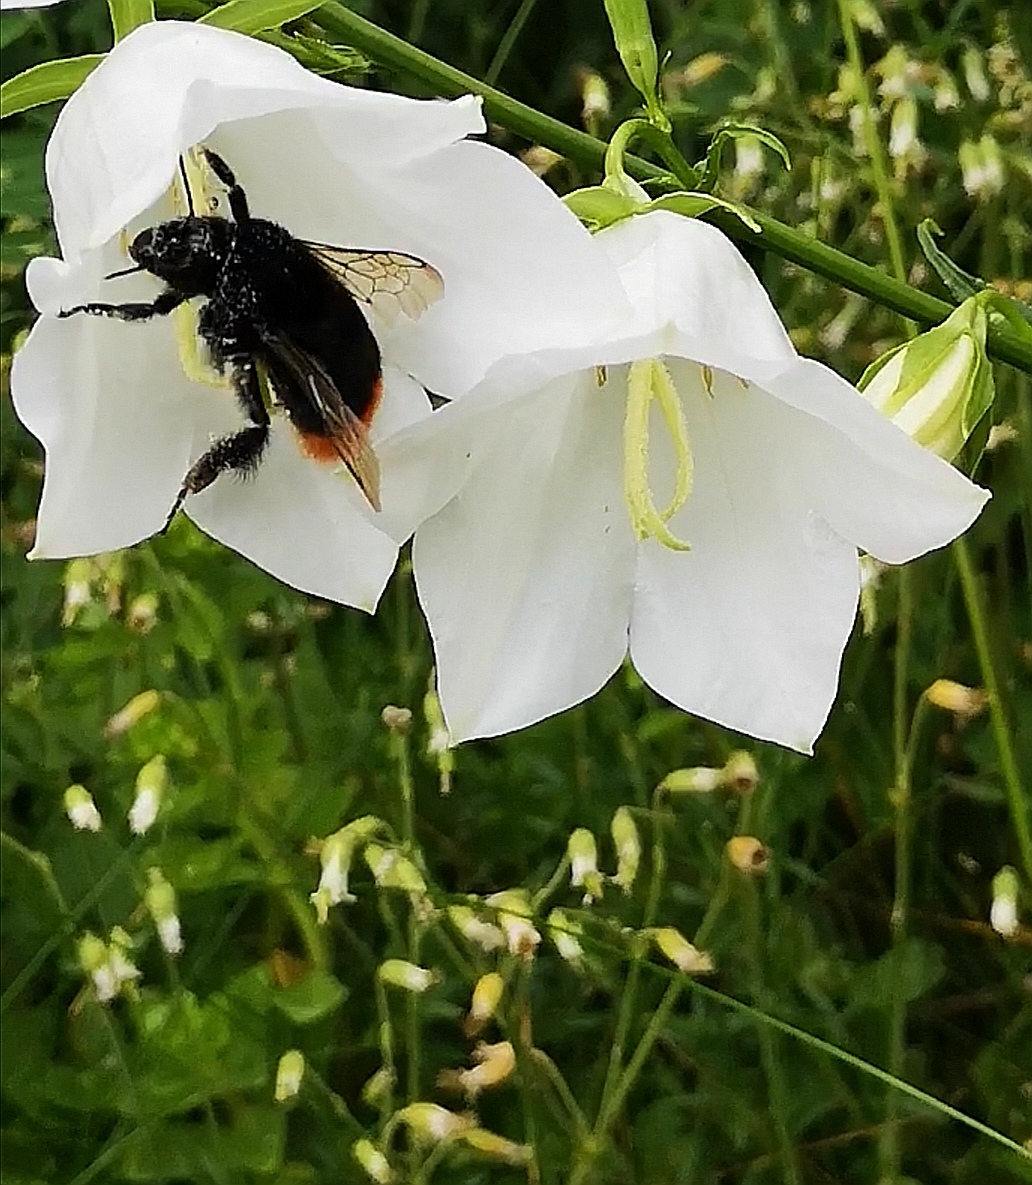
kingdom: Animalia
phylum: Arthropoda
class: Insecta
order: Hymenoptera
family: Apidae
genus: Bombus
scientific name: Bombus lapidarius
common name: Large red-tailed humble-bee
